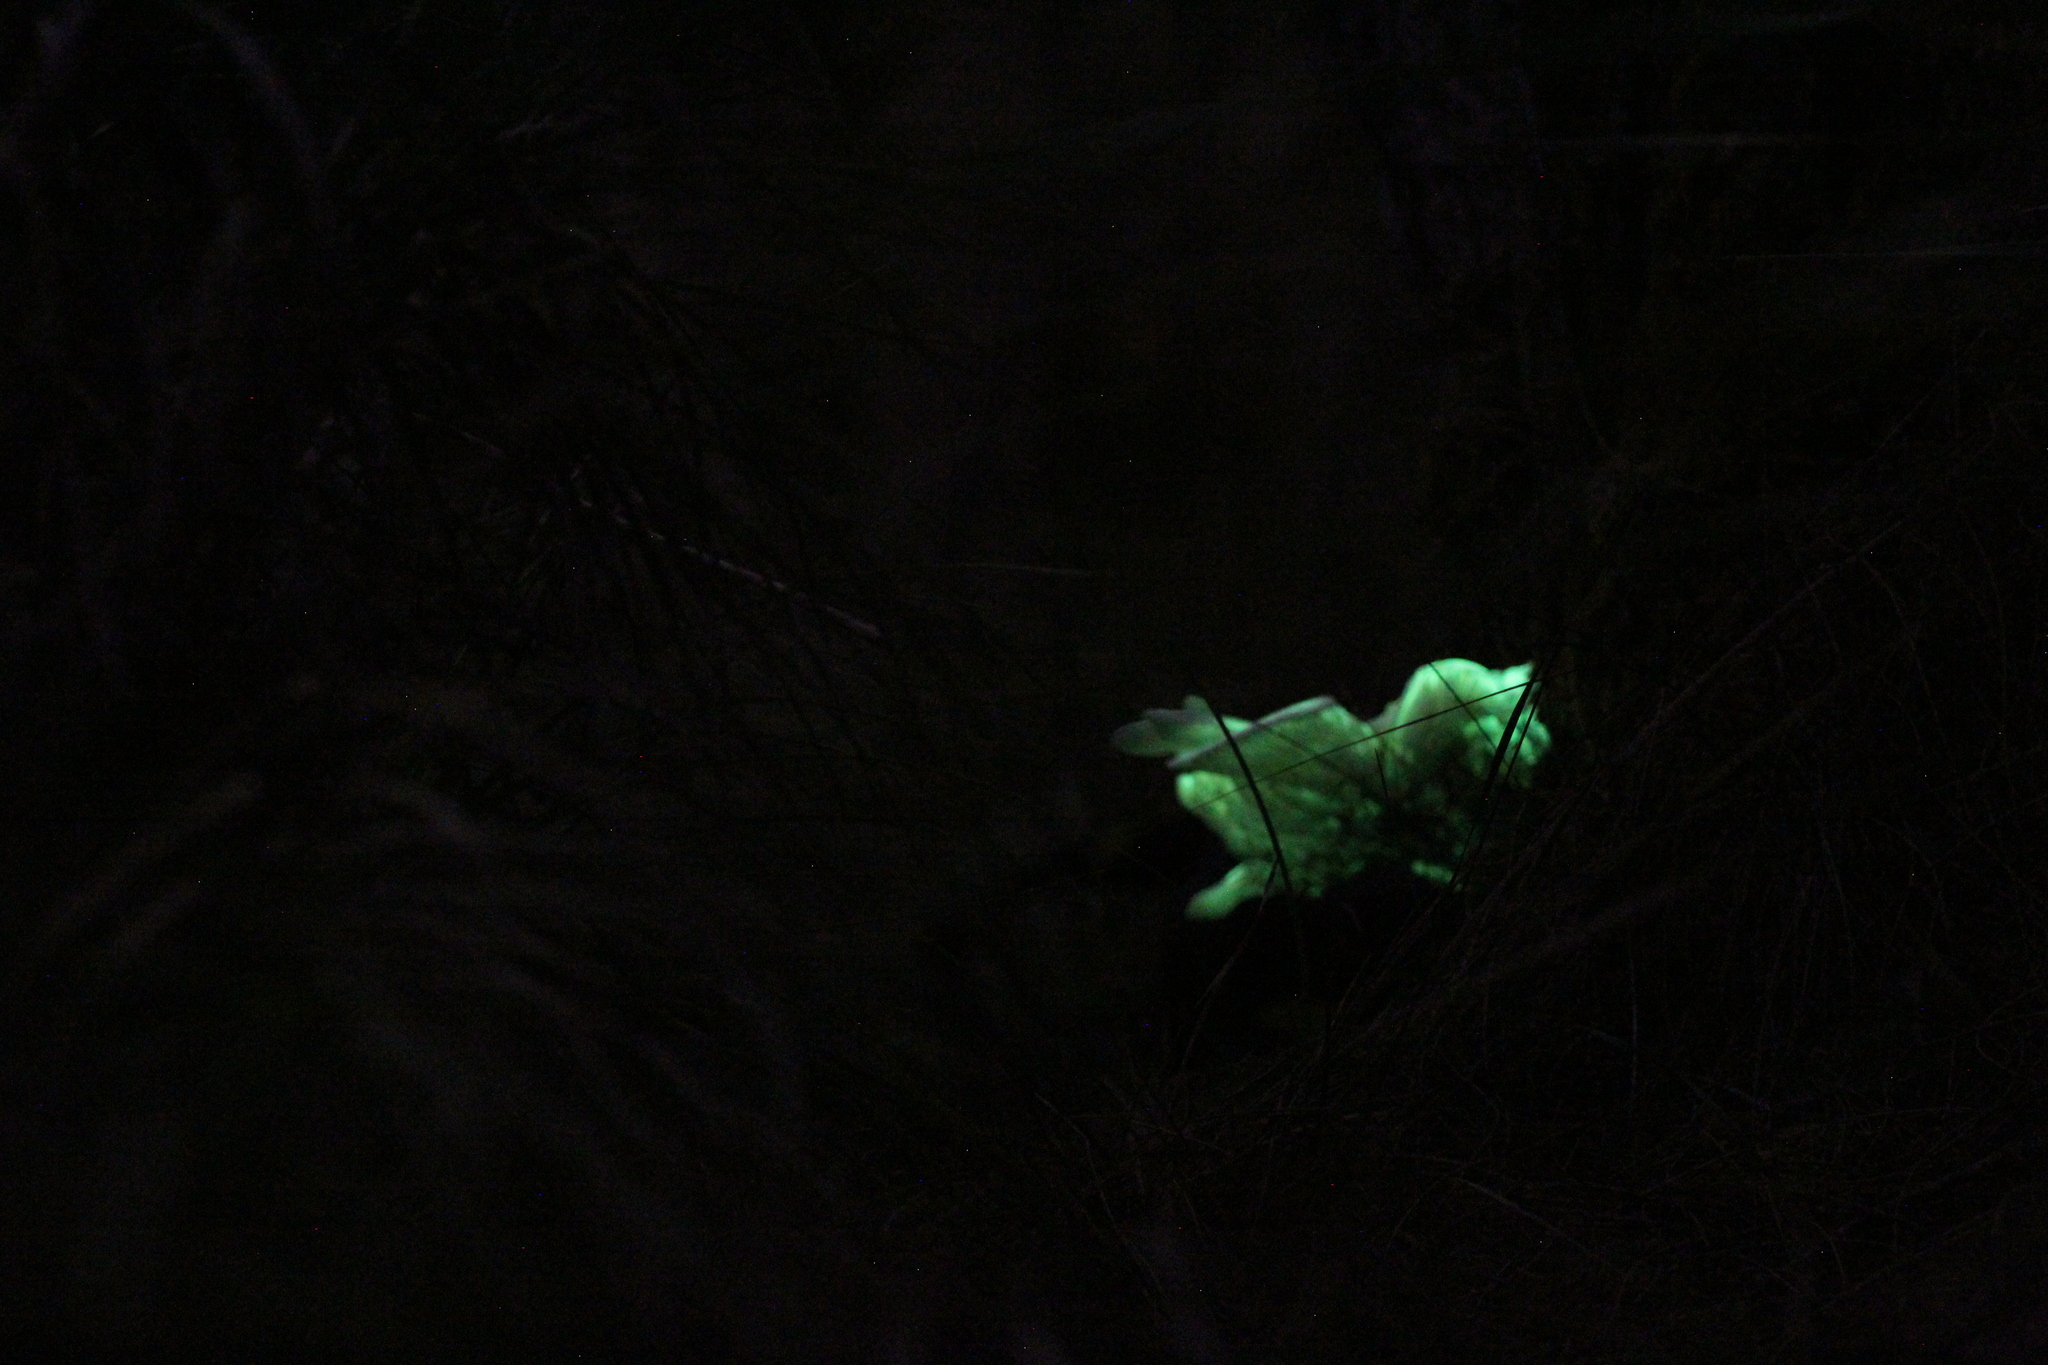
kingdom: Fungi
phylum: Basidiomycota
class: Agaricomycetes
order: Agaricales
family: Omphalotaceae
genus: Omphalotus
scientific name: Omphalotus nidiformis
